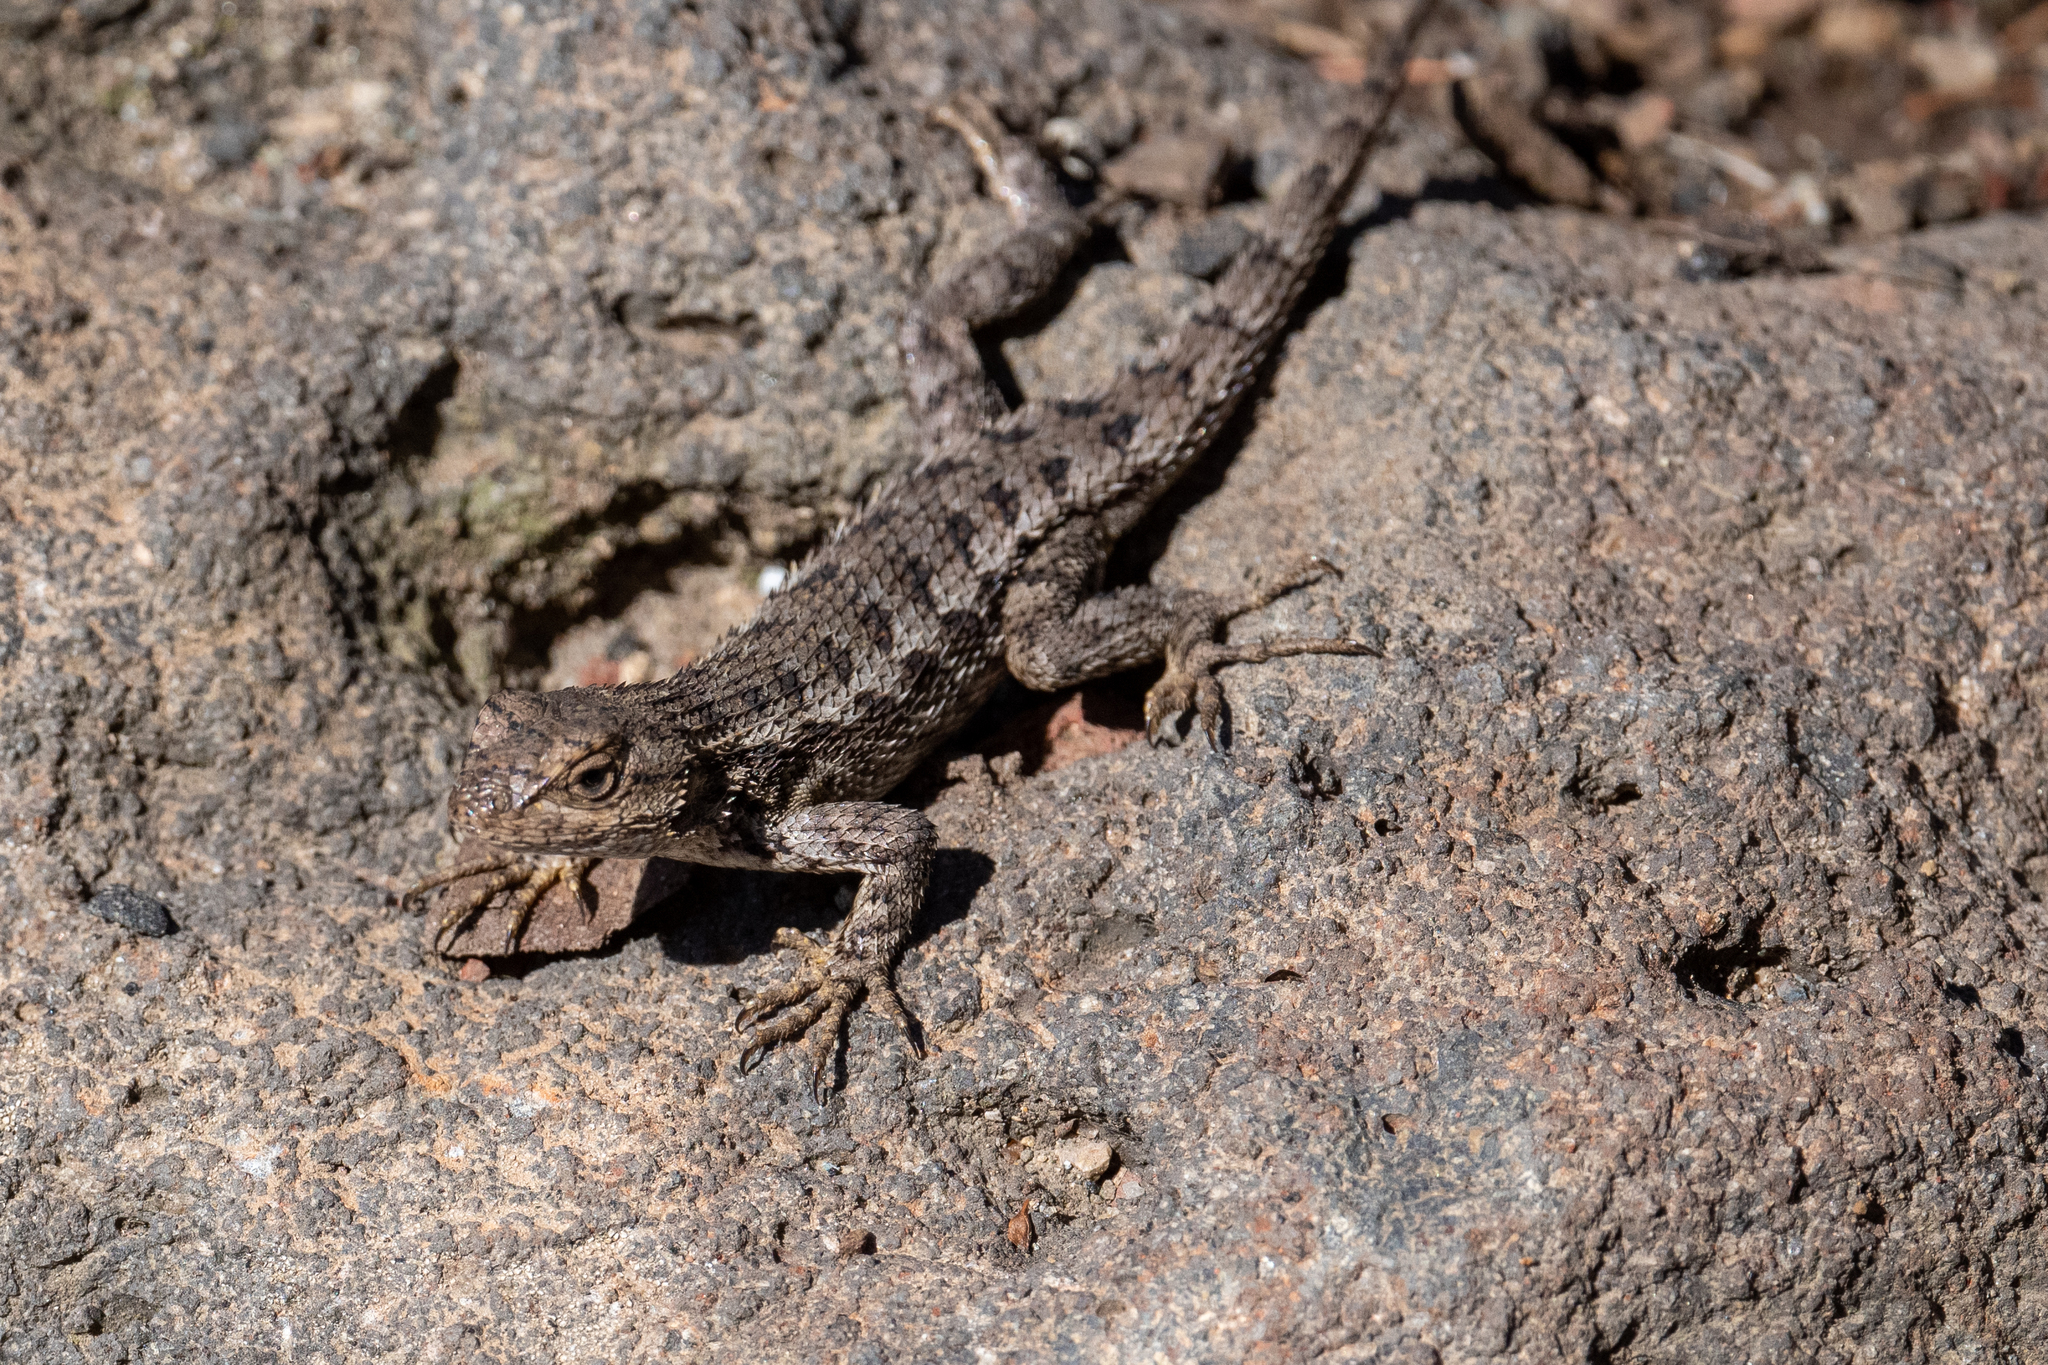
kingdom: Animalia
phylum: Chordata
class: Squamata
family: Phrynosomatidae
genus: Sceloporus
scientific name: Sceloporus occidentalis
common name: Western fence lizard
